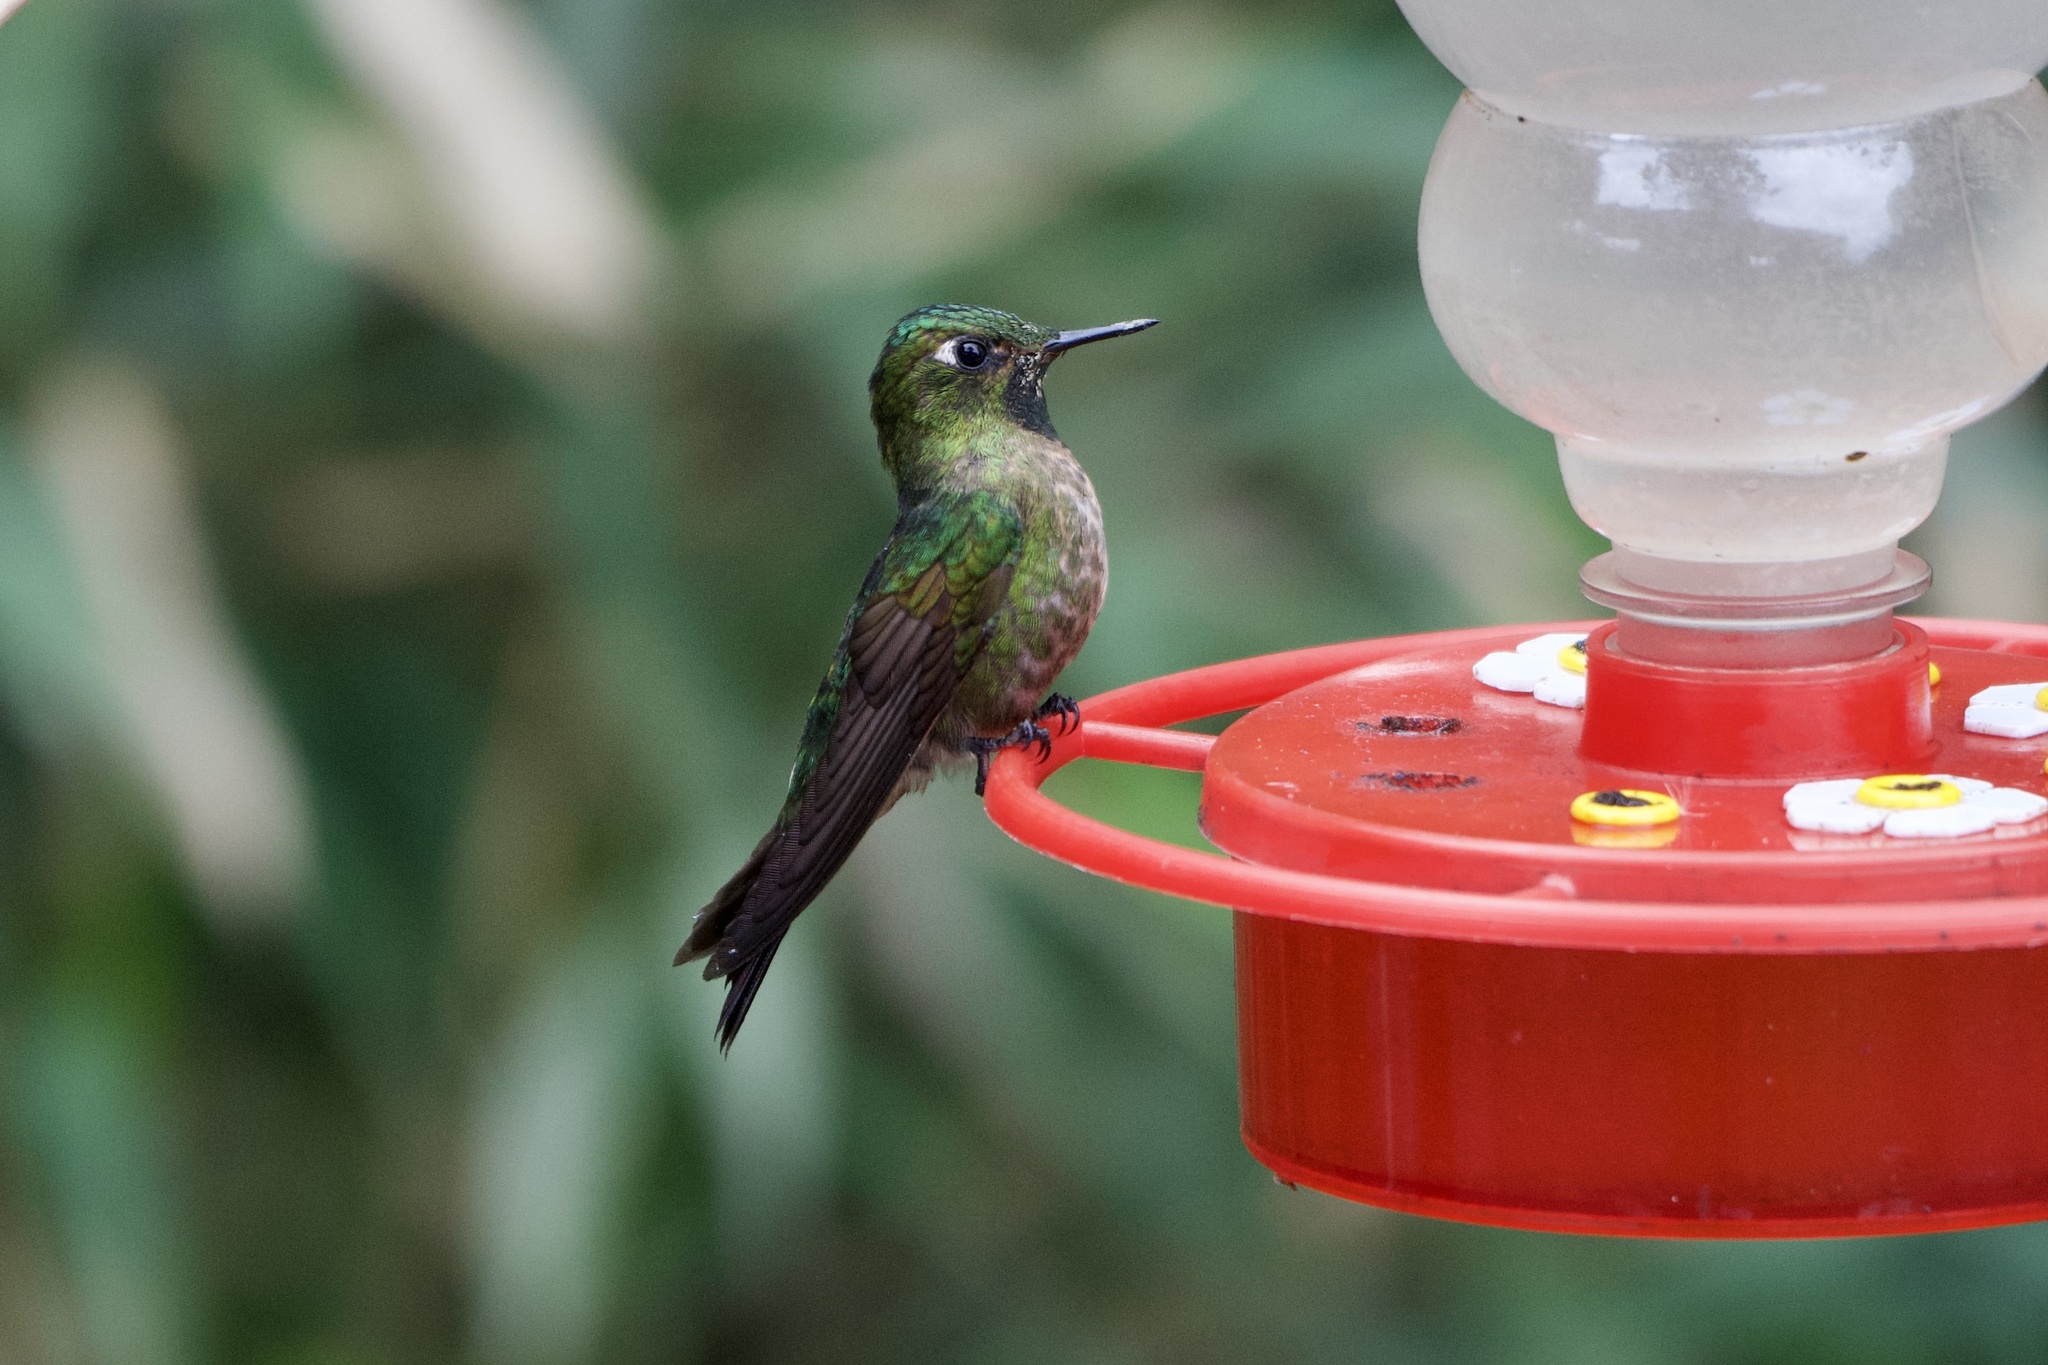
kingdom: Animalia
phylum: Chordata
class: Aves
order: Apodiformes
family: Trochilidae
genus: Metallura
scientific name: Metallura tyrianthina
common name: Tyrian metaltail
